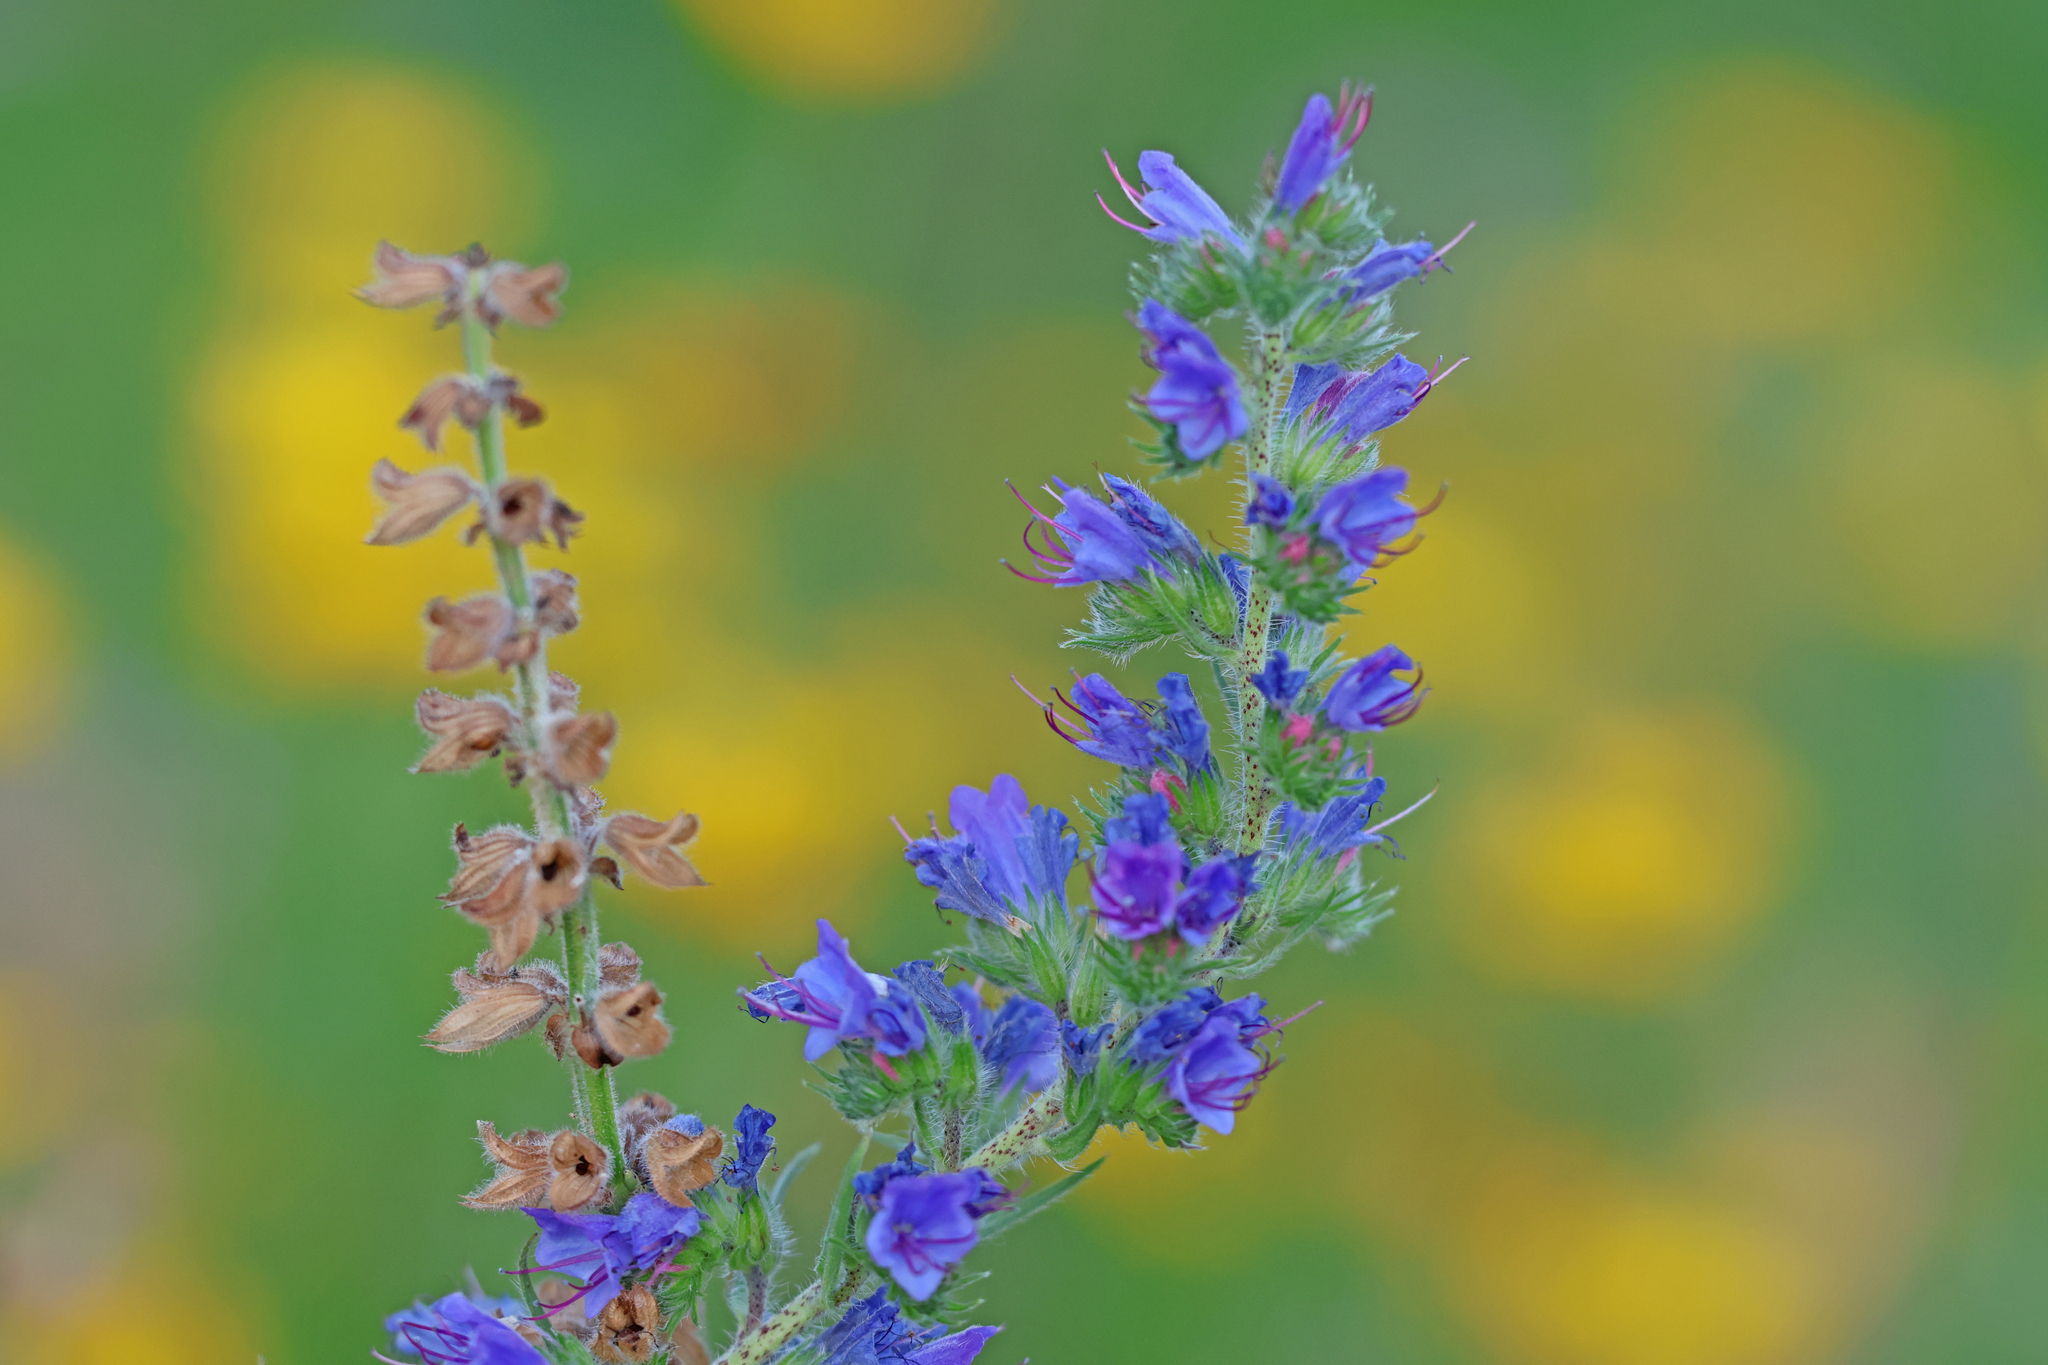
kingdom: Plantae
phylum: Tracheophyta
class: Magnoliopsida
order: Boraginales
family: Boraginaceae
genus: Echium
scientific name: Echium vulgare
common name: Common viper's bugloss
